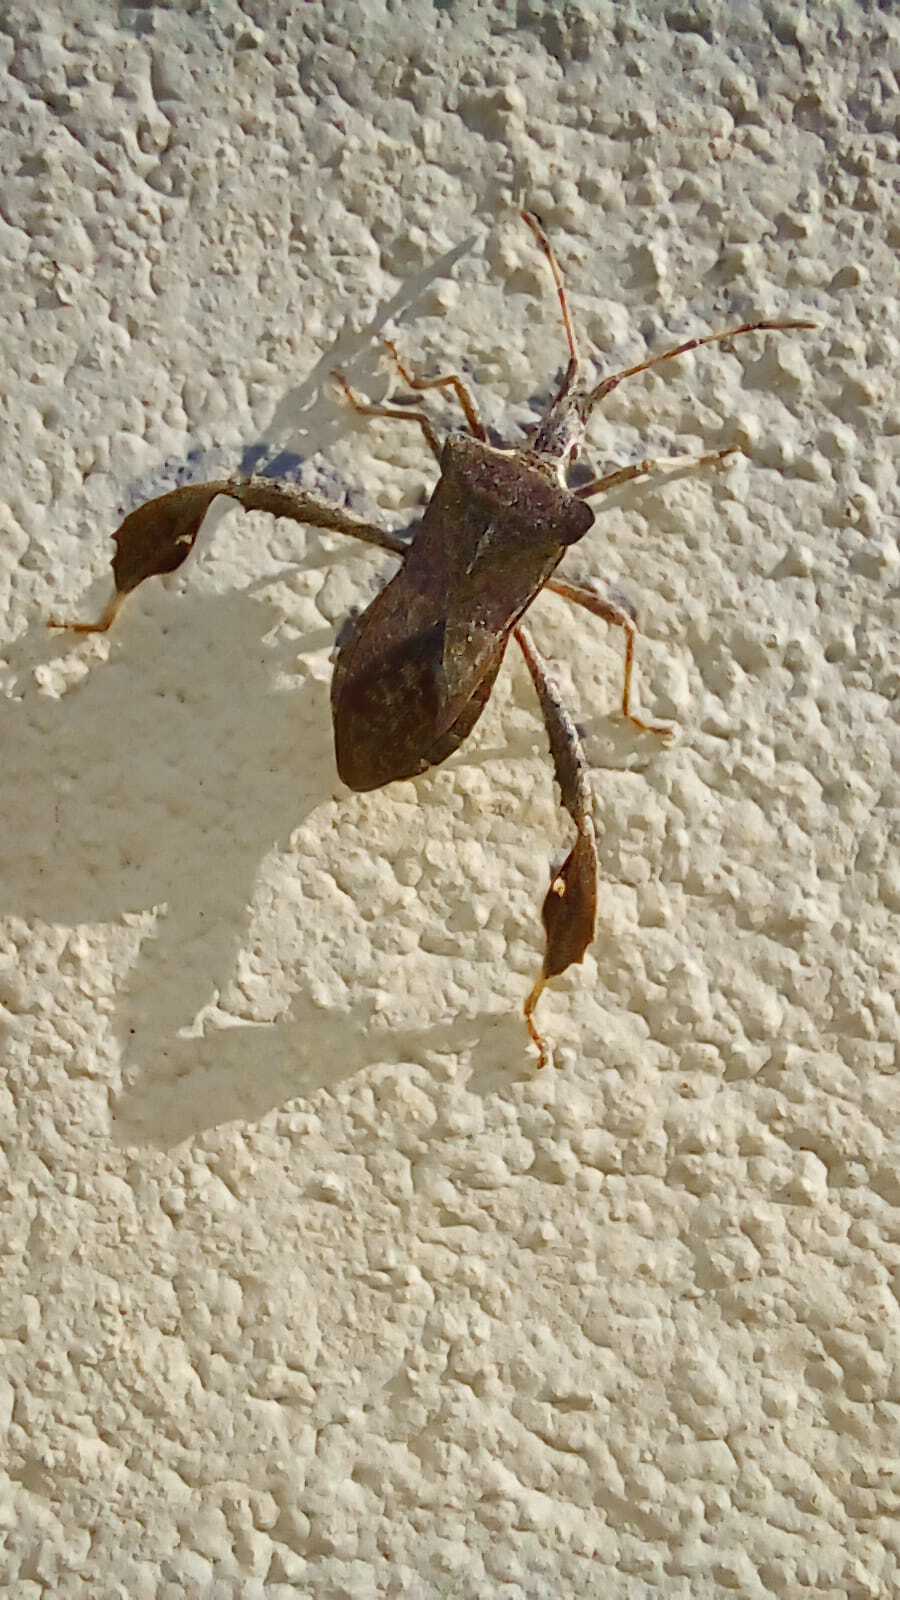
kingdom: Animalia
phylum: Arthropoda
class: Insecta
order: Hemiptera
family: Coreidae
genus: Leptoglossus
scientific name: Leptoglossus concaviusculus
